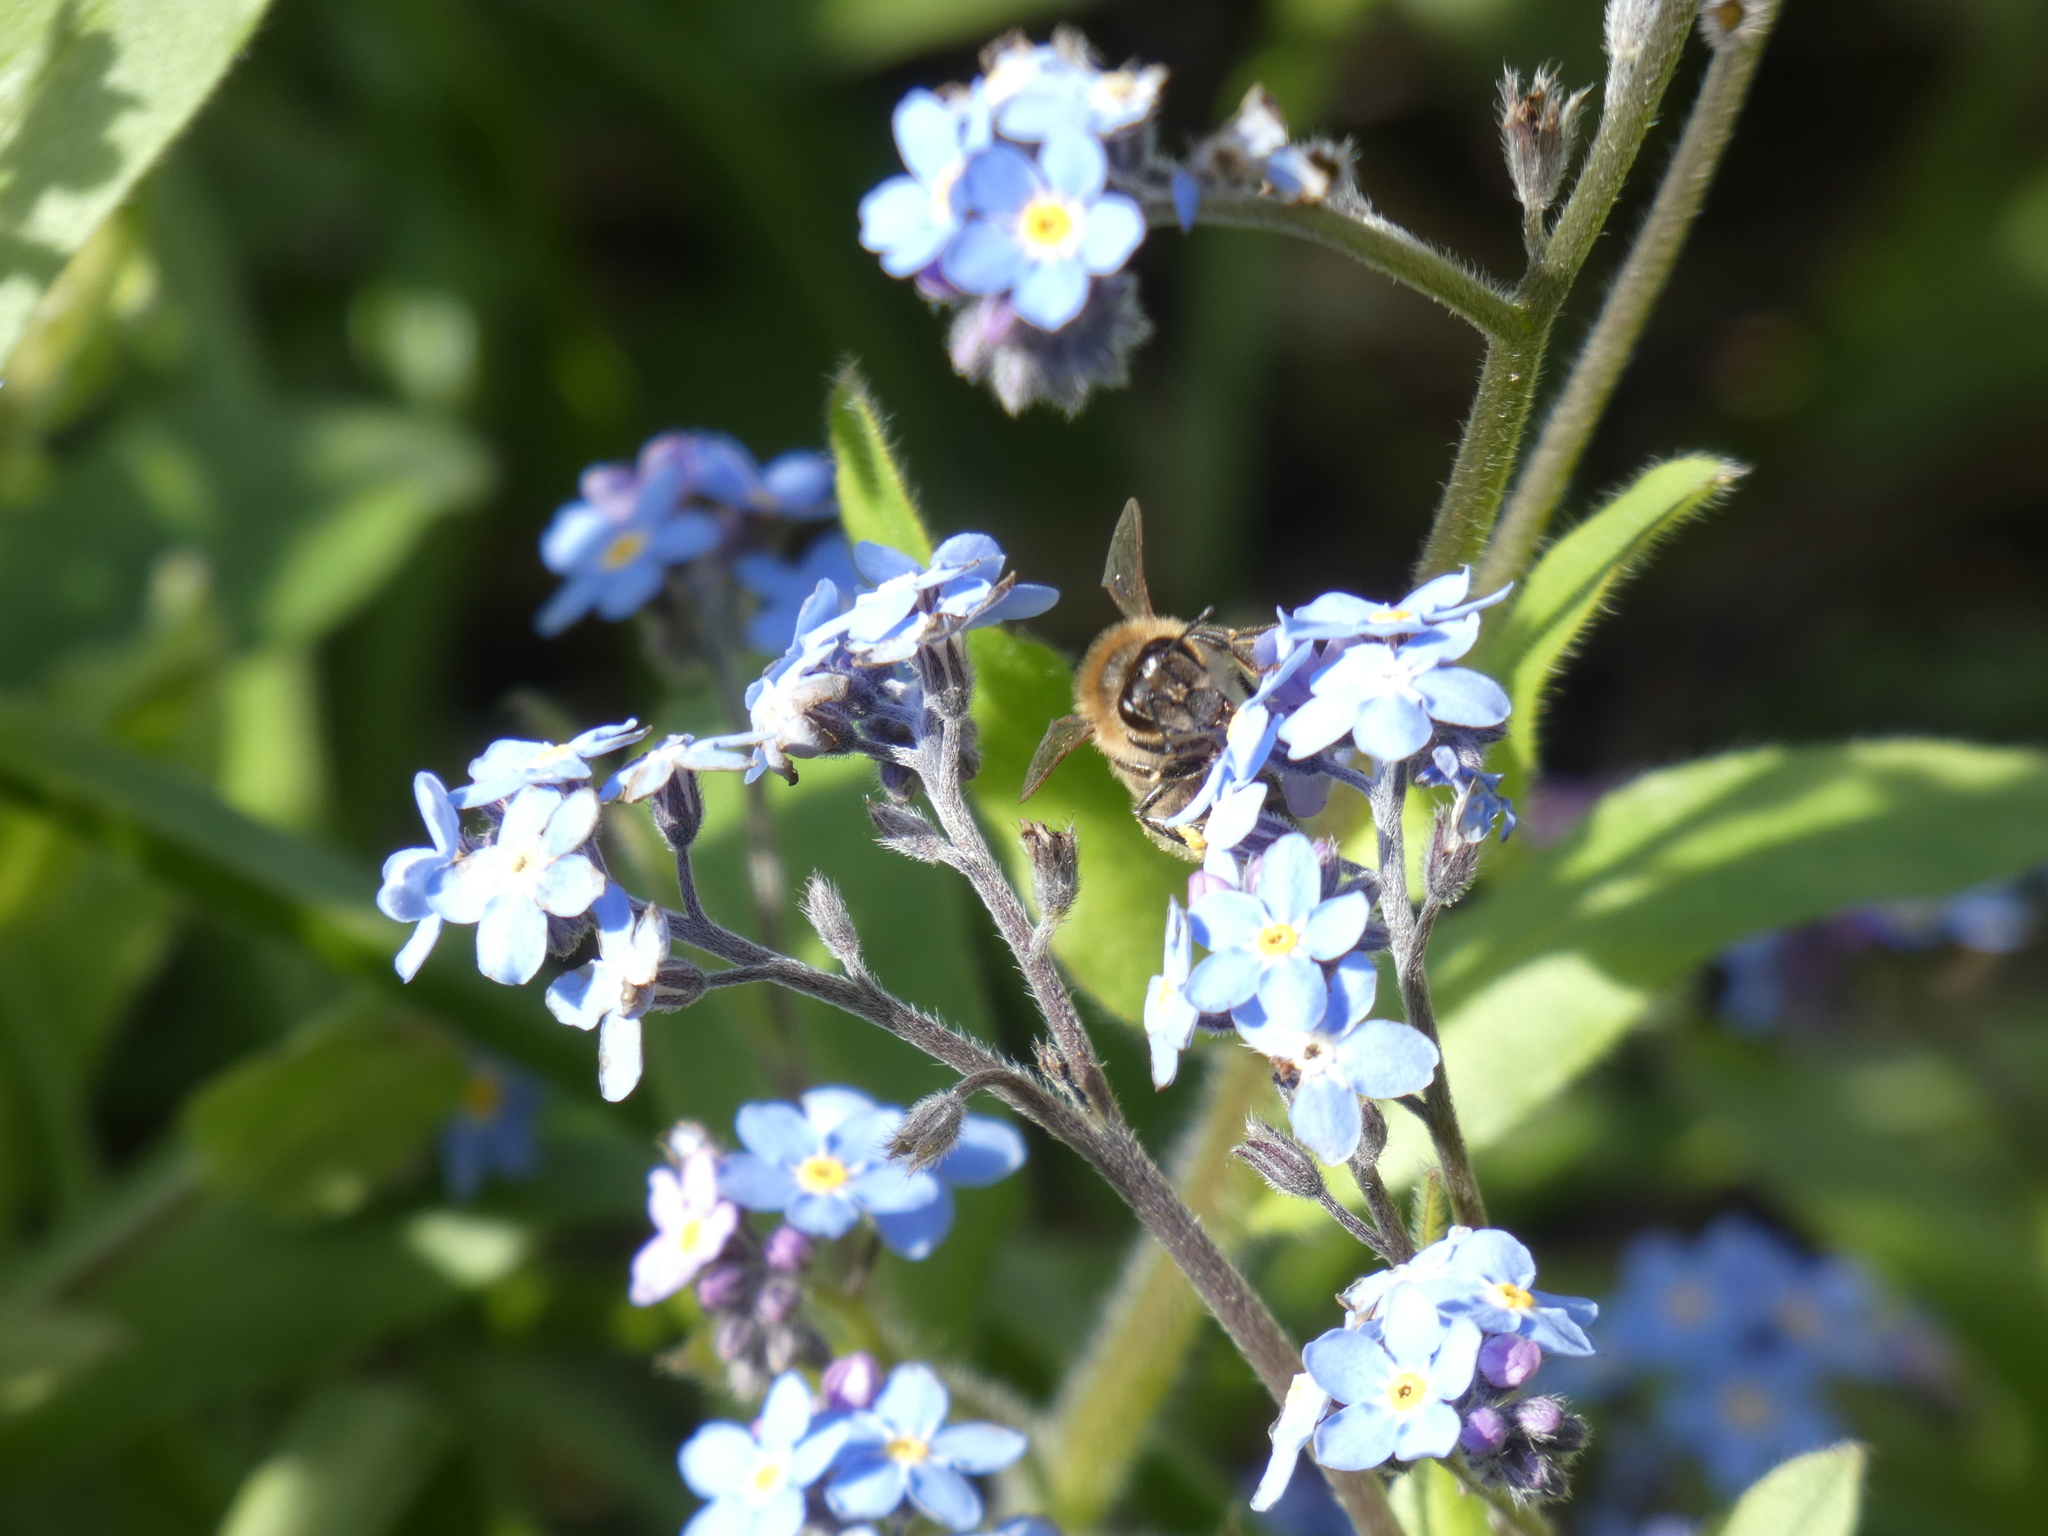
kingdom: Animalia
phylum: Arthropoda
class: Insecta
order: Hymenoptera
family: Apidae
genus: Apis
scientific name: Apis mellifera
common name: Honey bee
